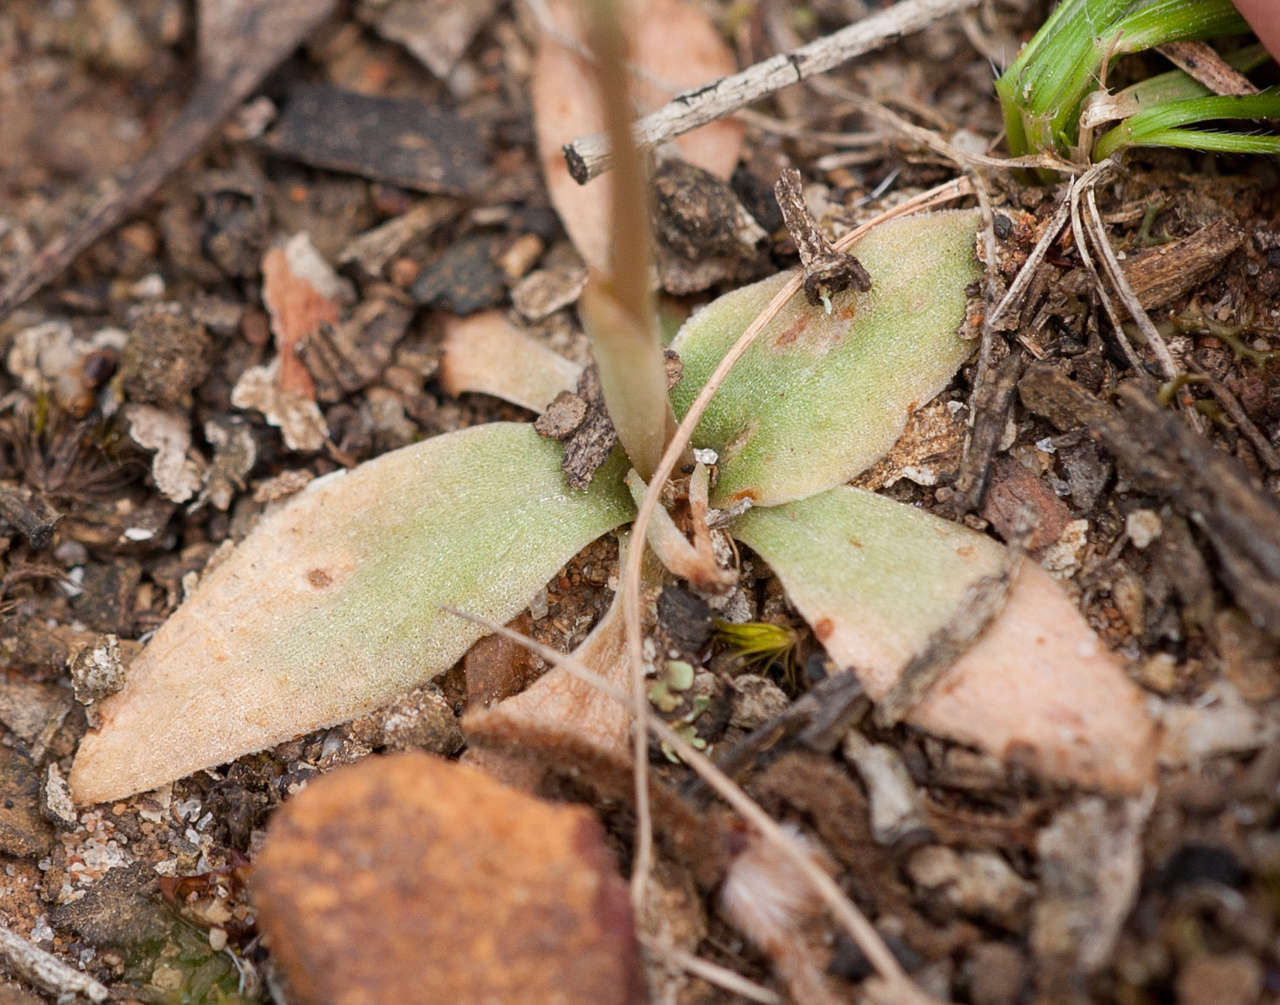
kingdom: Plantae
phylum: Tracheophyta
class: Liliopsida
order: Asparagales
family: Orchidaceae
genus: Pterostylis
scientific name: Pterostylis squamata
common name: Ruddy greenhood
